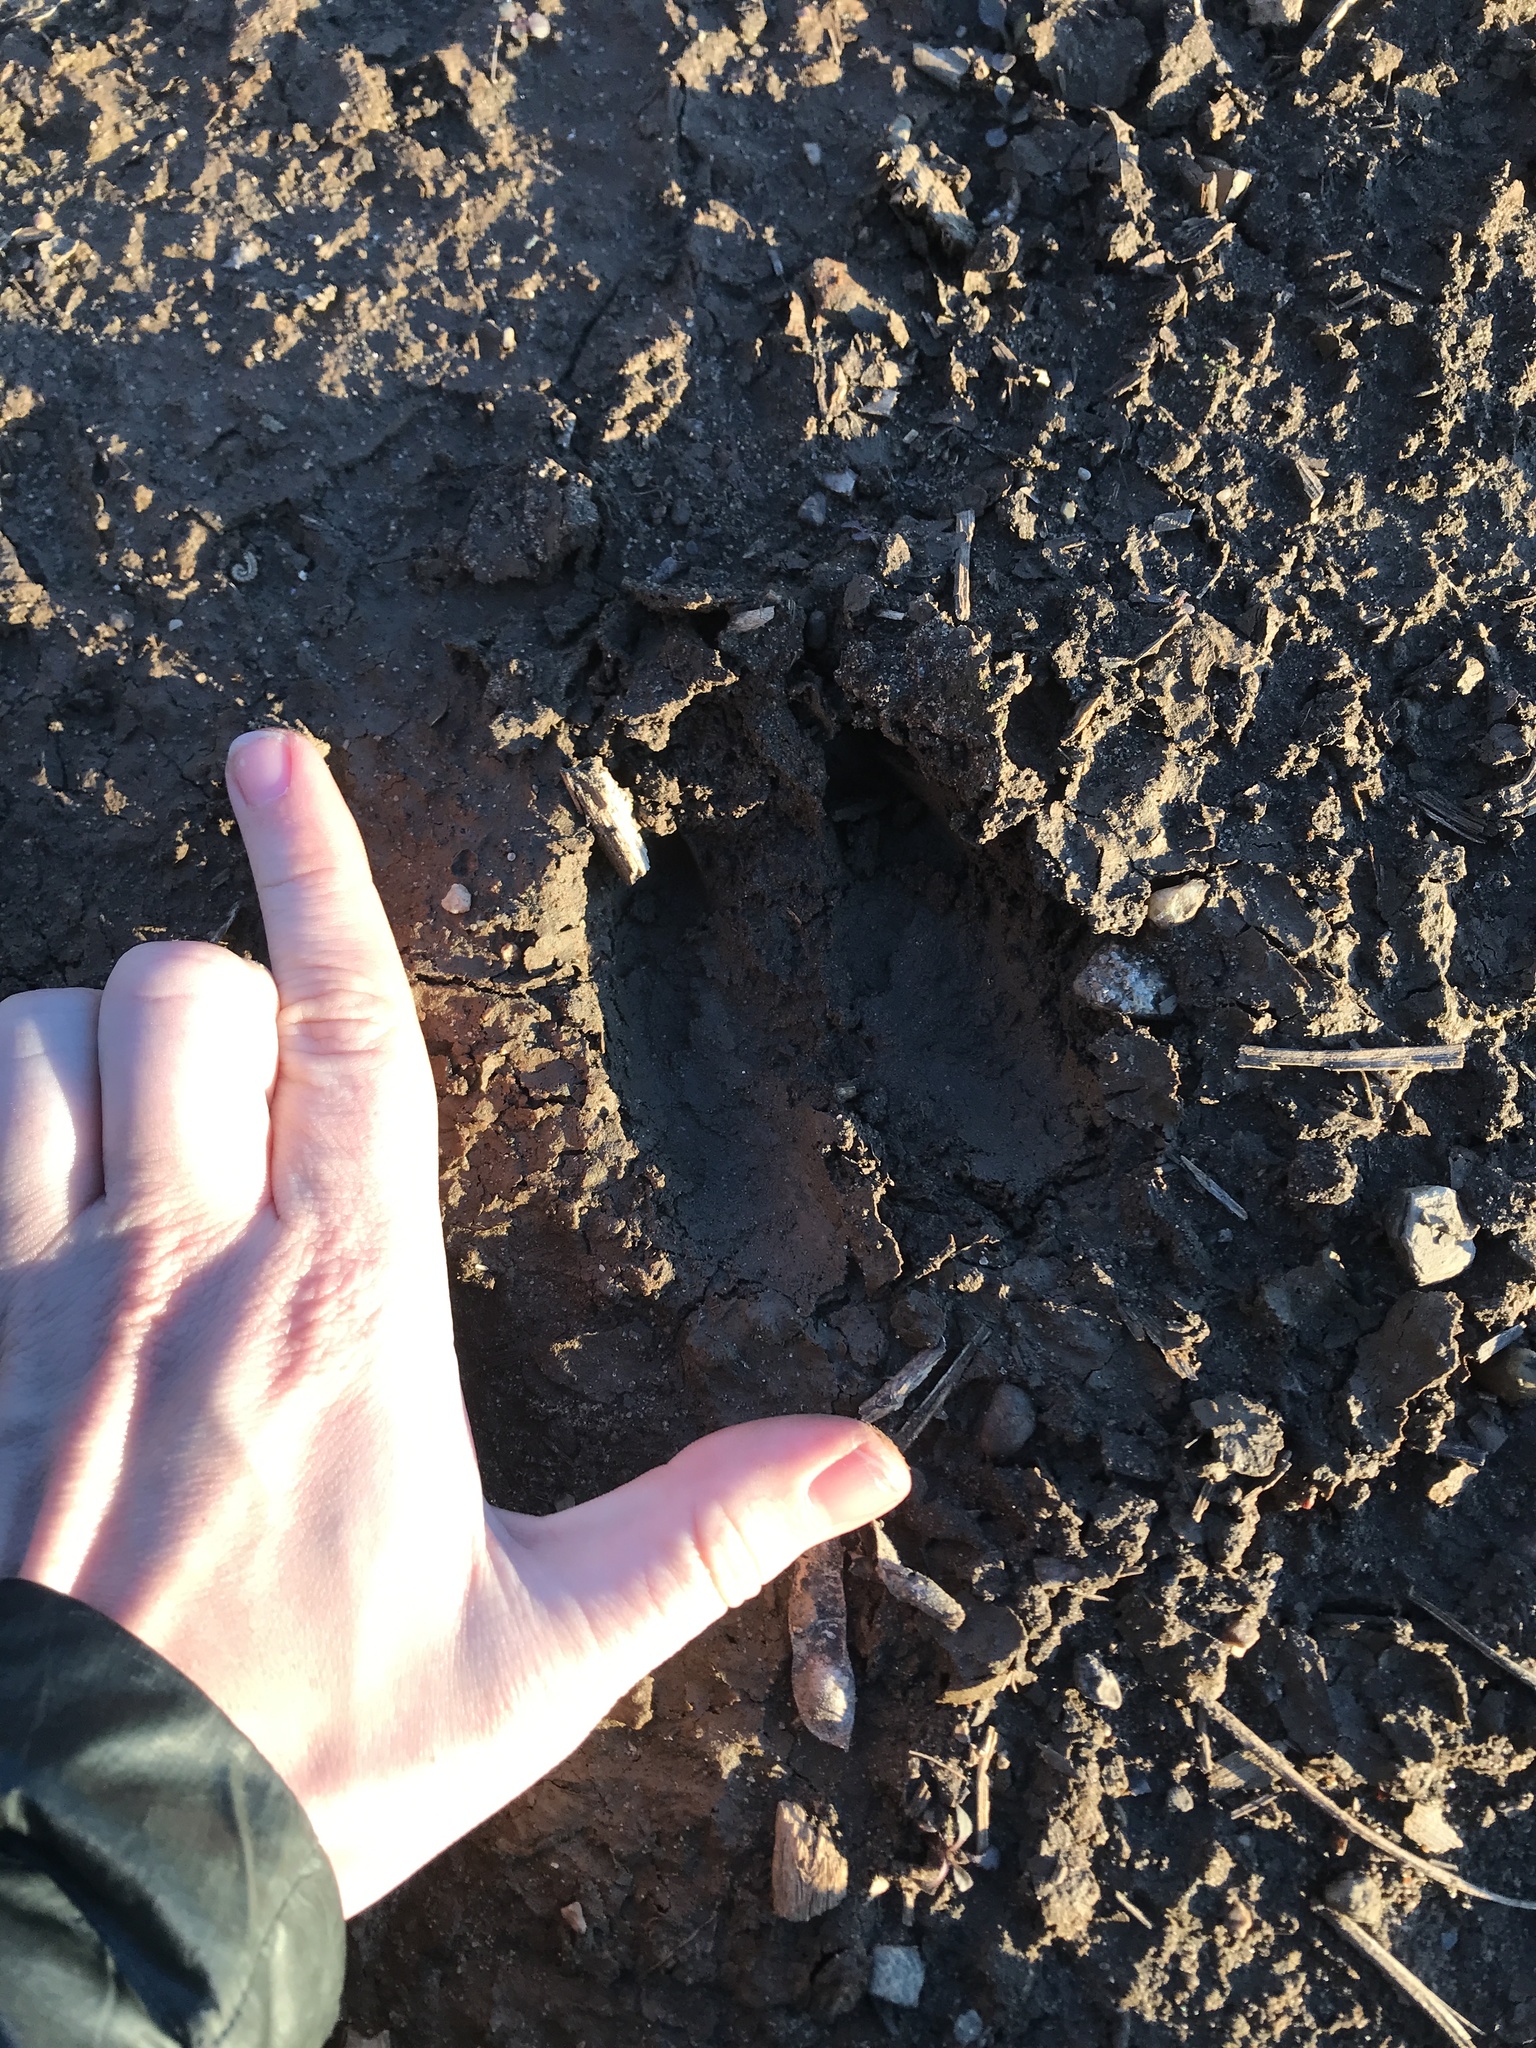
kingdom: Animalia
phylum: Chordata
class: Mammalia
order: Artiodactyla
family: Cervidae
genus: Odocoileus
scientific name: Odocoileus virginianus
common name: White-tailed deer
